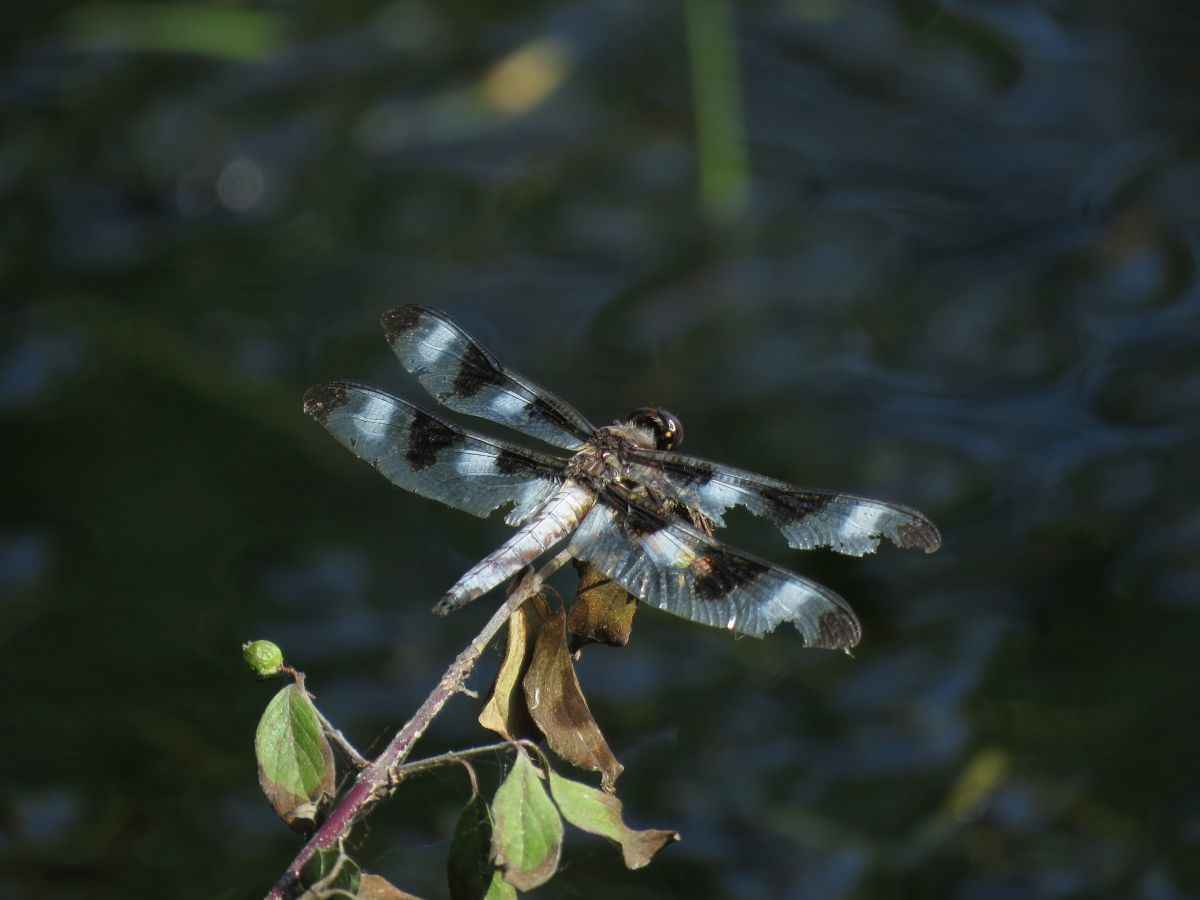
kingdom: Animalia
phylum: Arthropoda
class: Insecta
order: Odonata
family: Libellulidae
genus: Libellula
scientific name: Libellula pulchella
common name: Twelve-spotted skimmer
